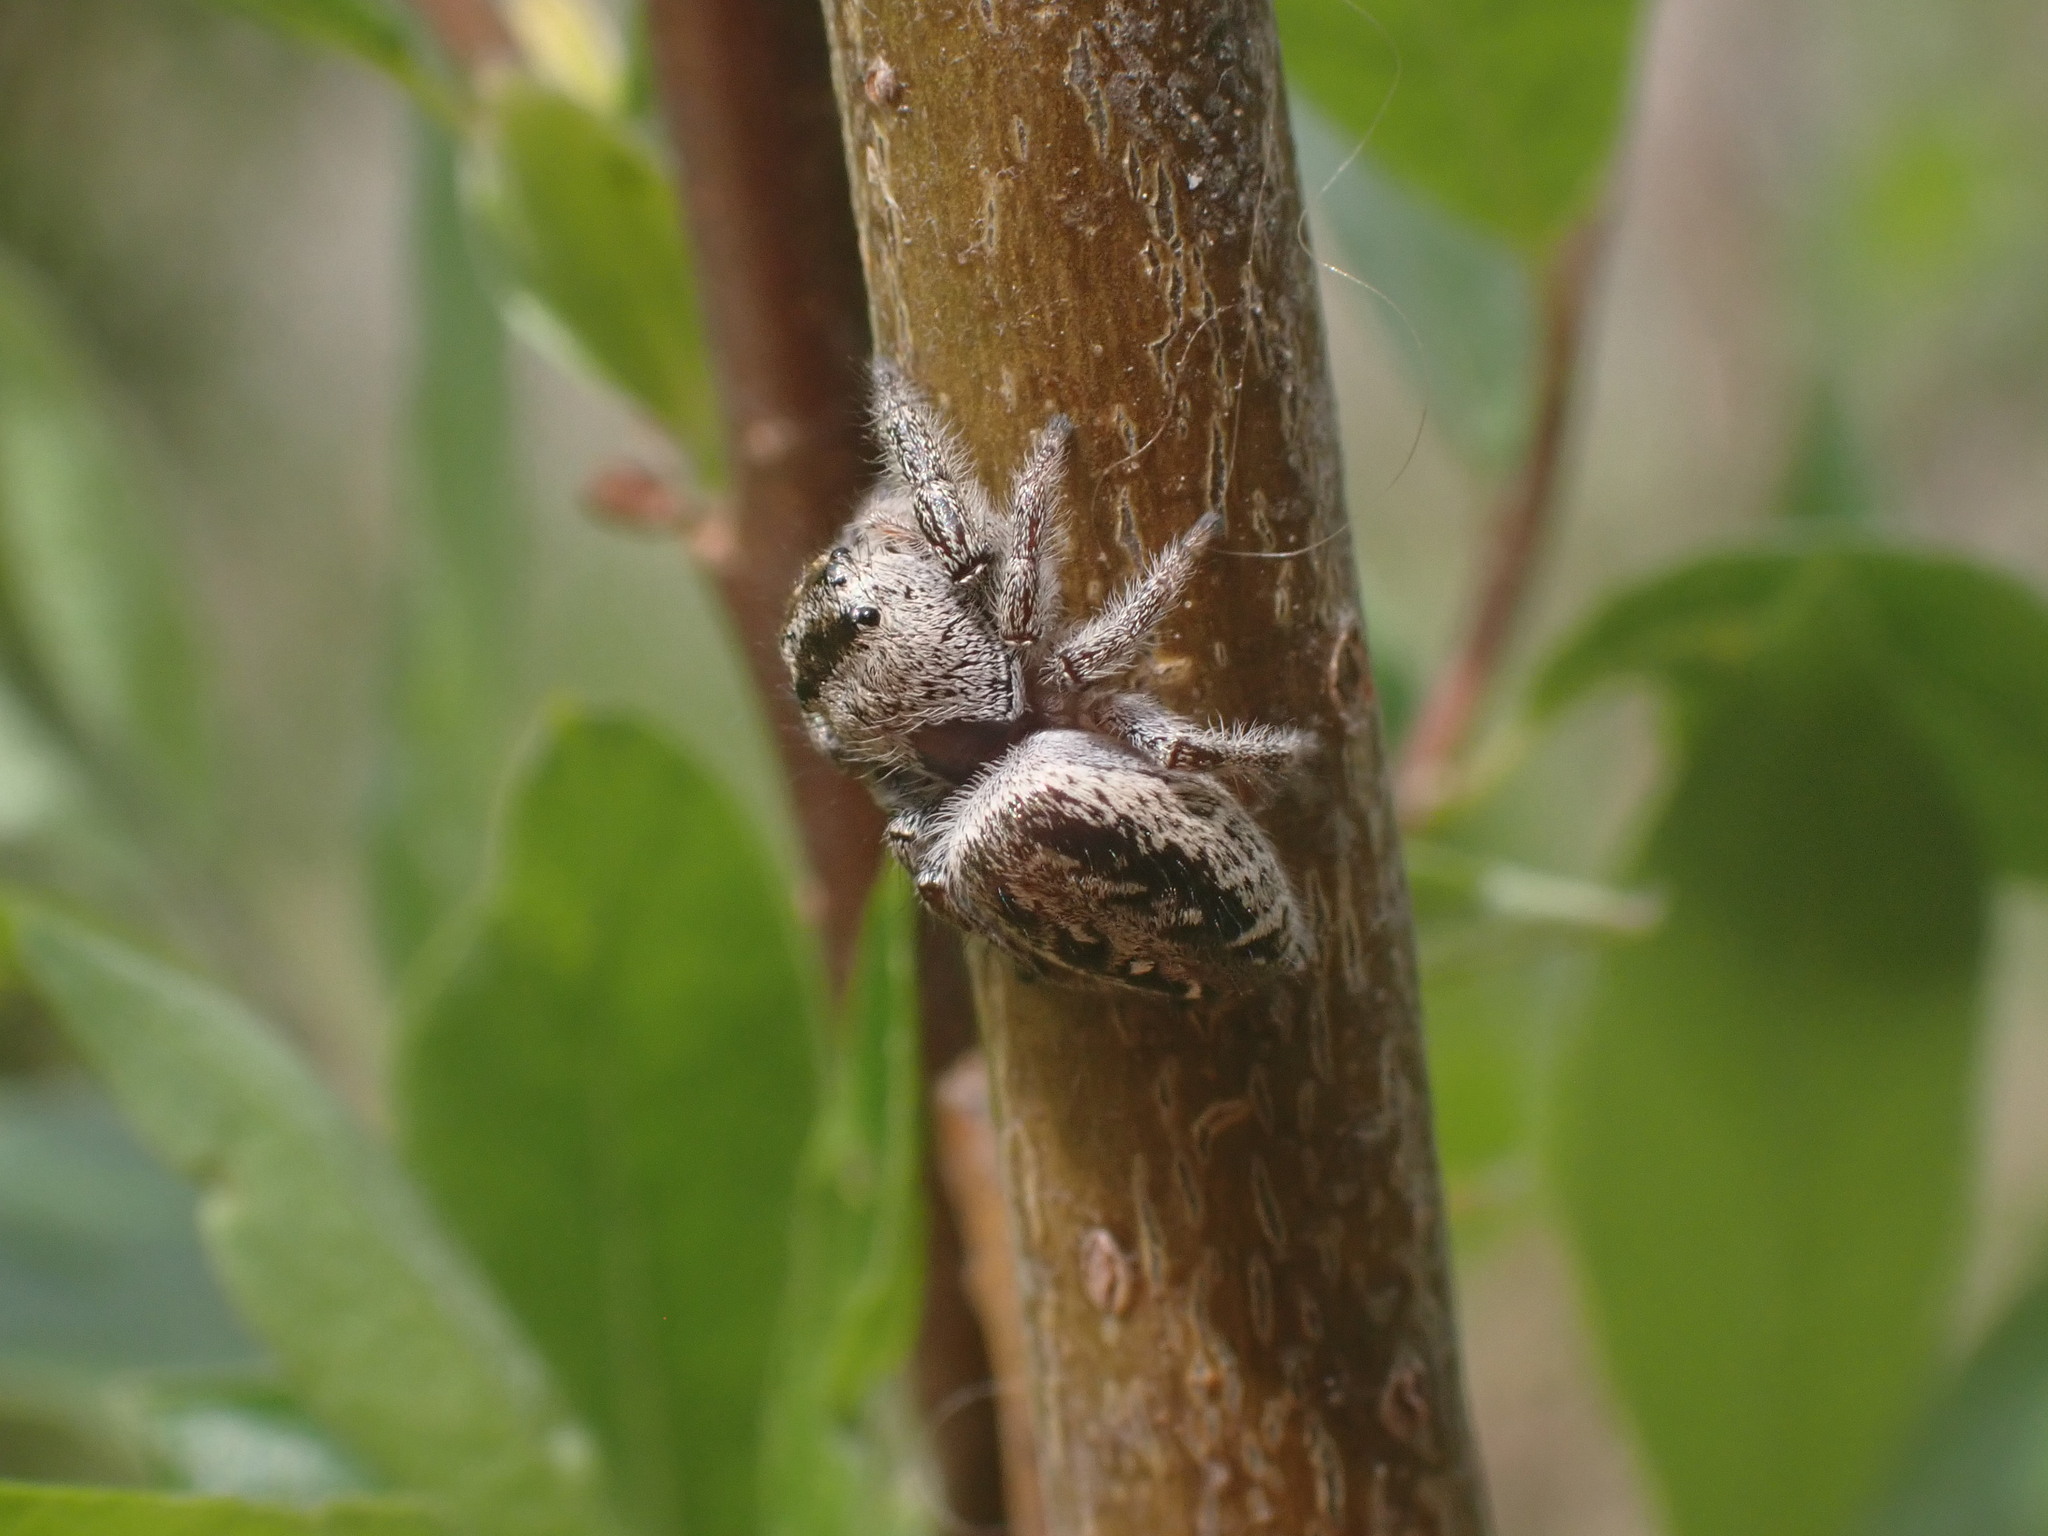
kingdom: Animalia
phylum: Arthropoda
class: Arachnida
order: Araneae
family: Salticidae
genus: Eris
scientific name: Eris militaris
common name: Bronze jumper
